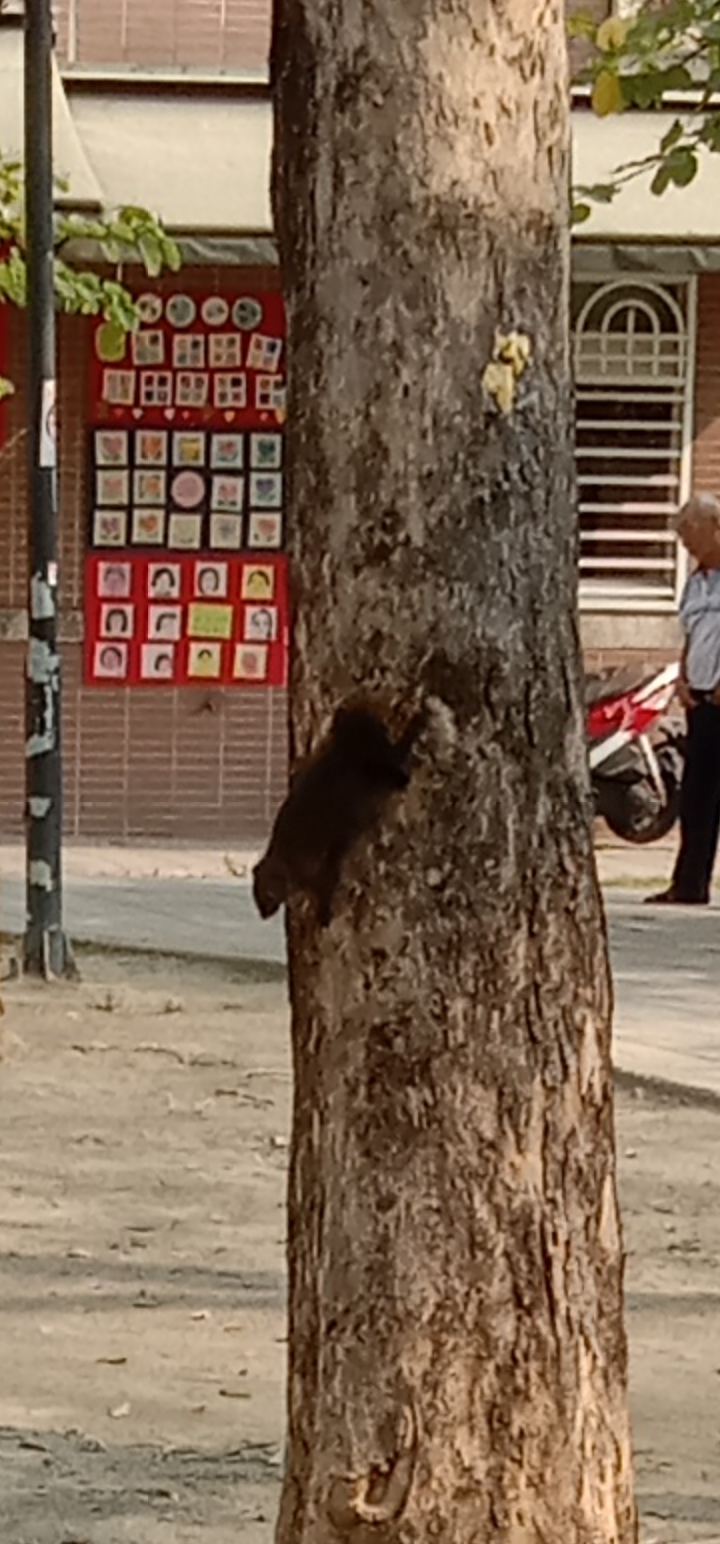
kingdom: Animalia
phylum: Chordata
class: Mammalia
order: Rodentia
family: Sciuridae
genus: Callosciurus
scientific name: Callosciurus erythraeus
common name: Pallas's squirrel
